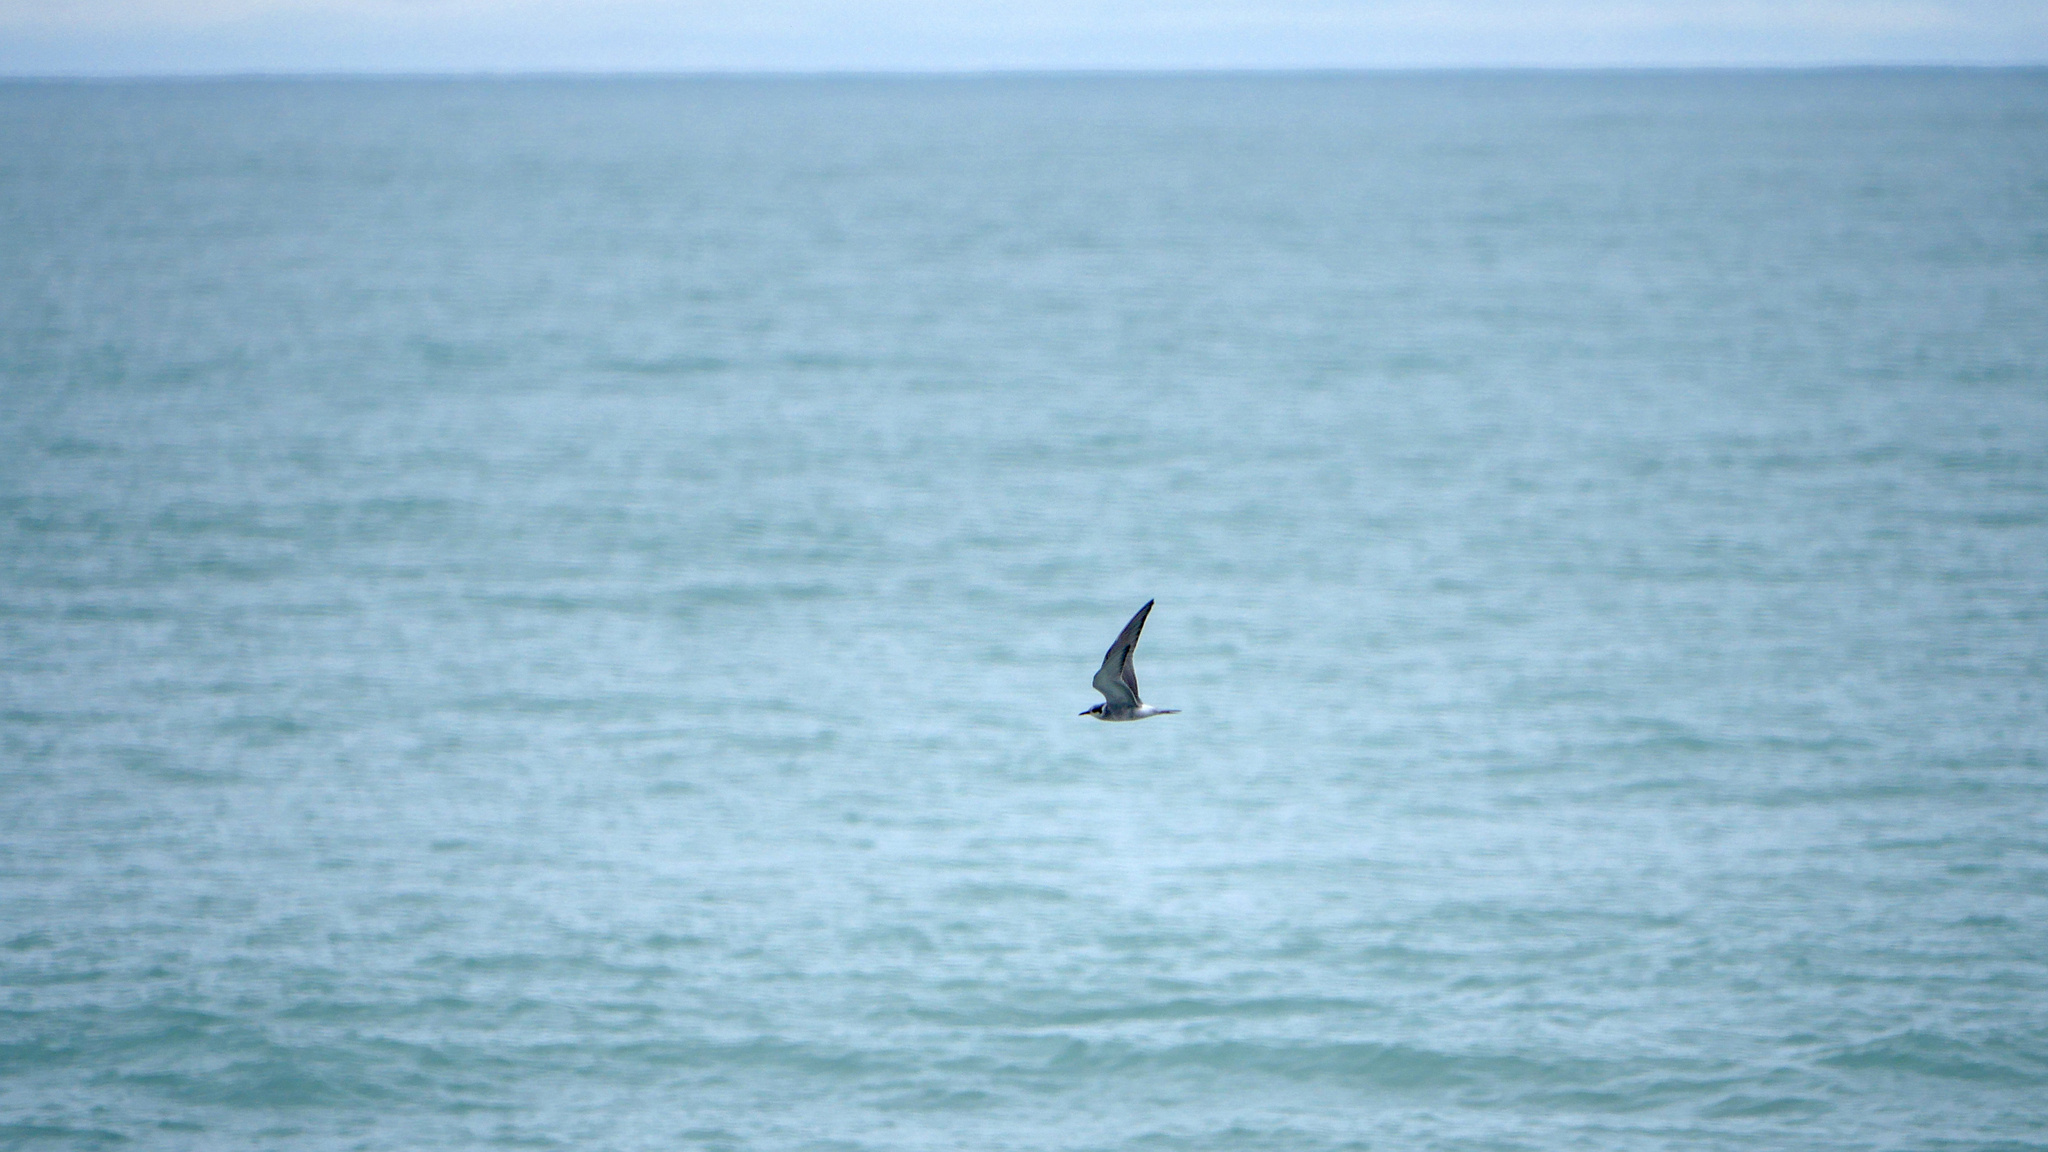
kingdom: Animalia
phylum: Chordata
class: Aves
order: Charadriiformes
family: Laridae
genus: Chlidonias
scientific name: Chlidonias albostriatus
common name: Black-fronted tern
